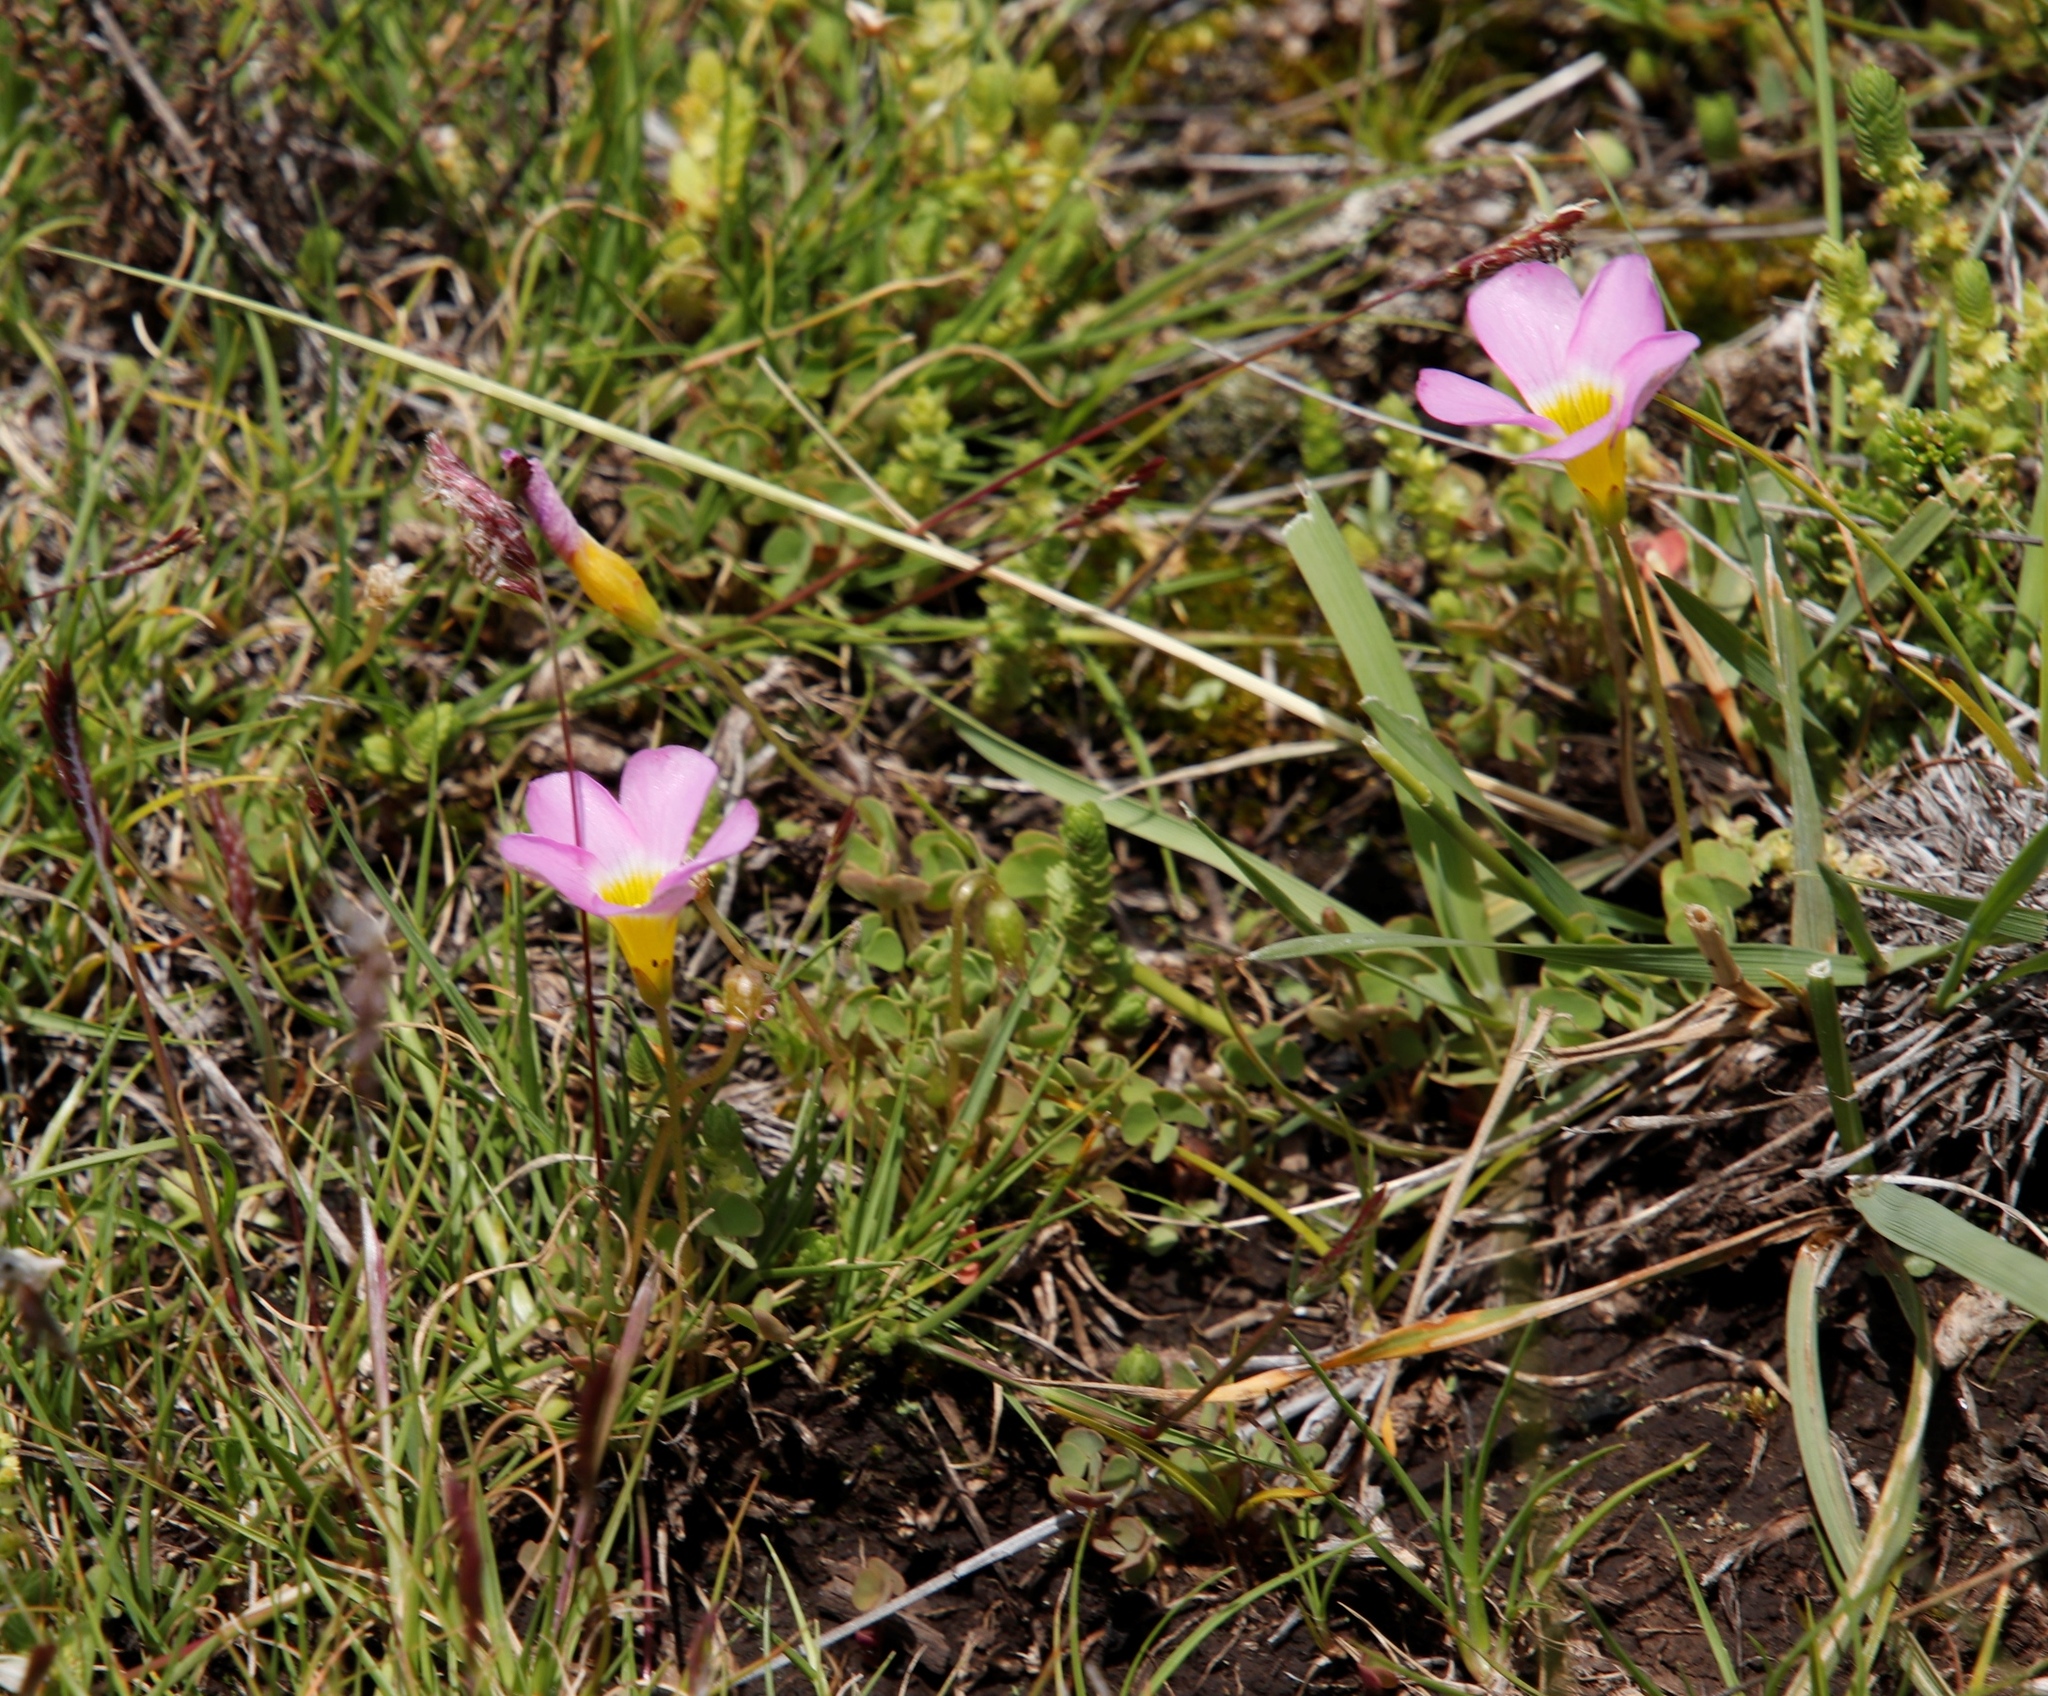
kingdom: Plantae
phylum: Tracheophyta
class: Magnoliopsida
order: Oxalidales
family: Oxalidaceae
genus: Oxalis
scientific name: Oxalis obliquifolia
